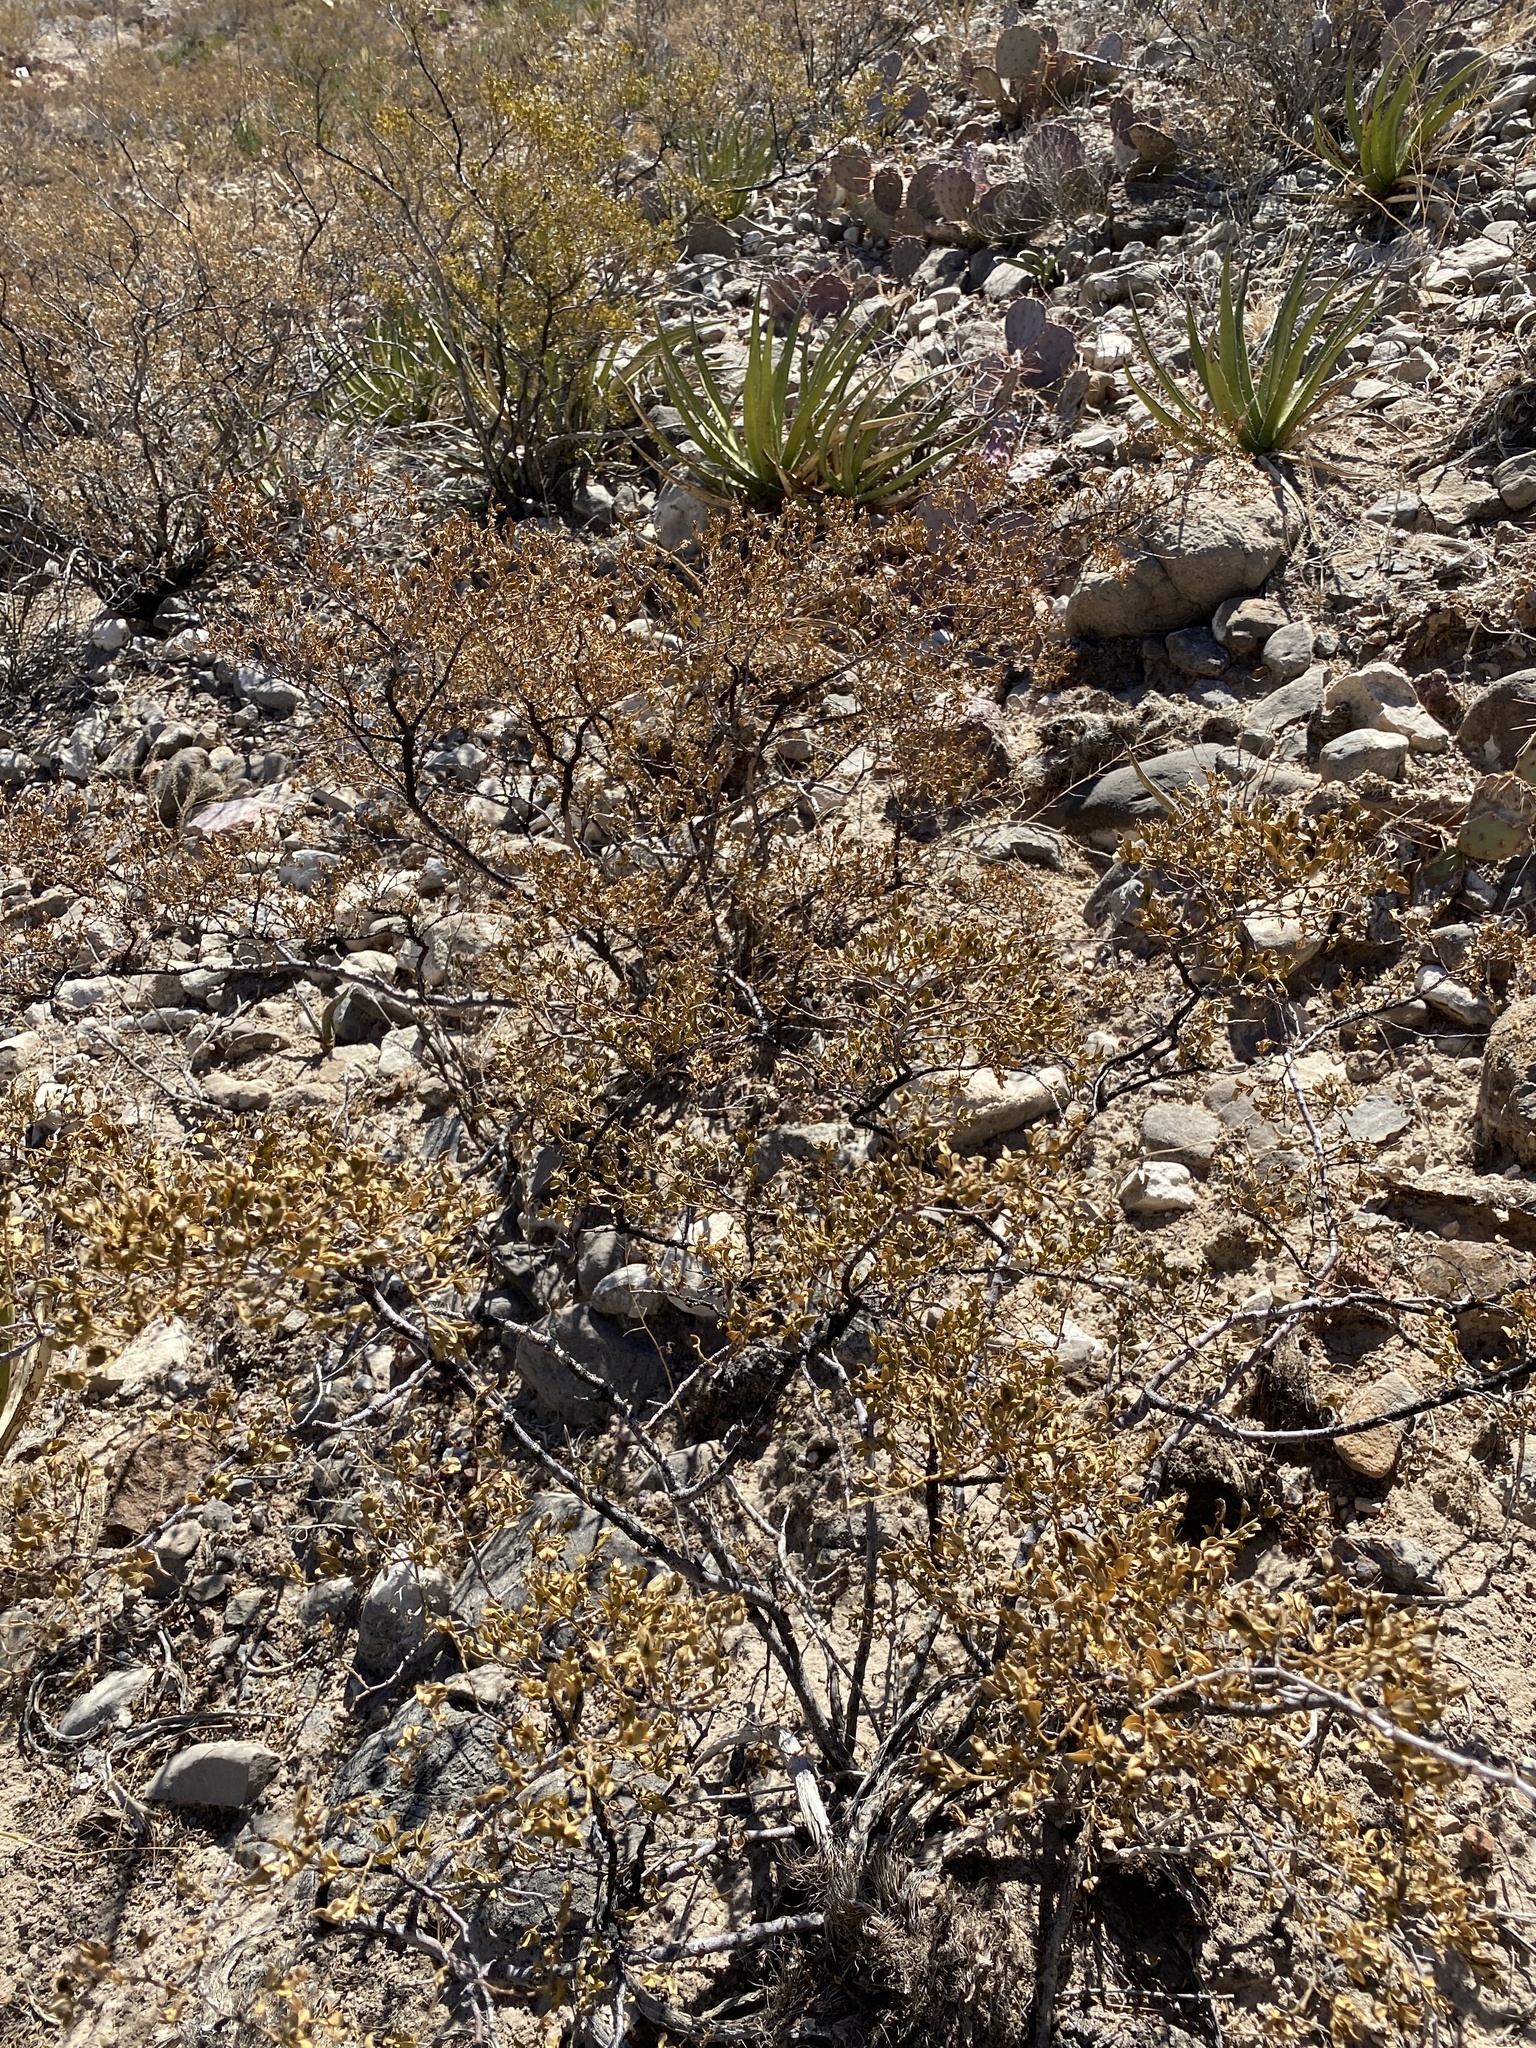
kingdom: Plantae
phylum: Tracheophyta
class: Magnoliopsida
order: Zygophyllales
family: Zygophyllaceae
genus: Larrea
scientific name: Larrea tridentata
